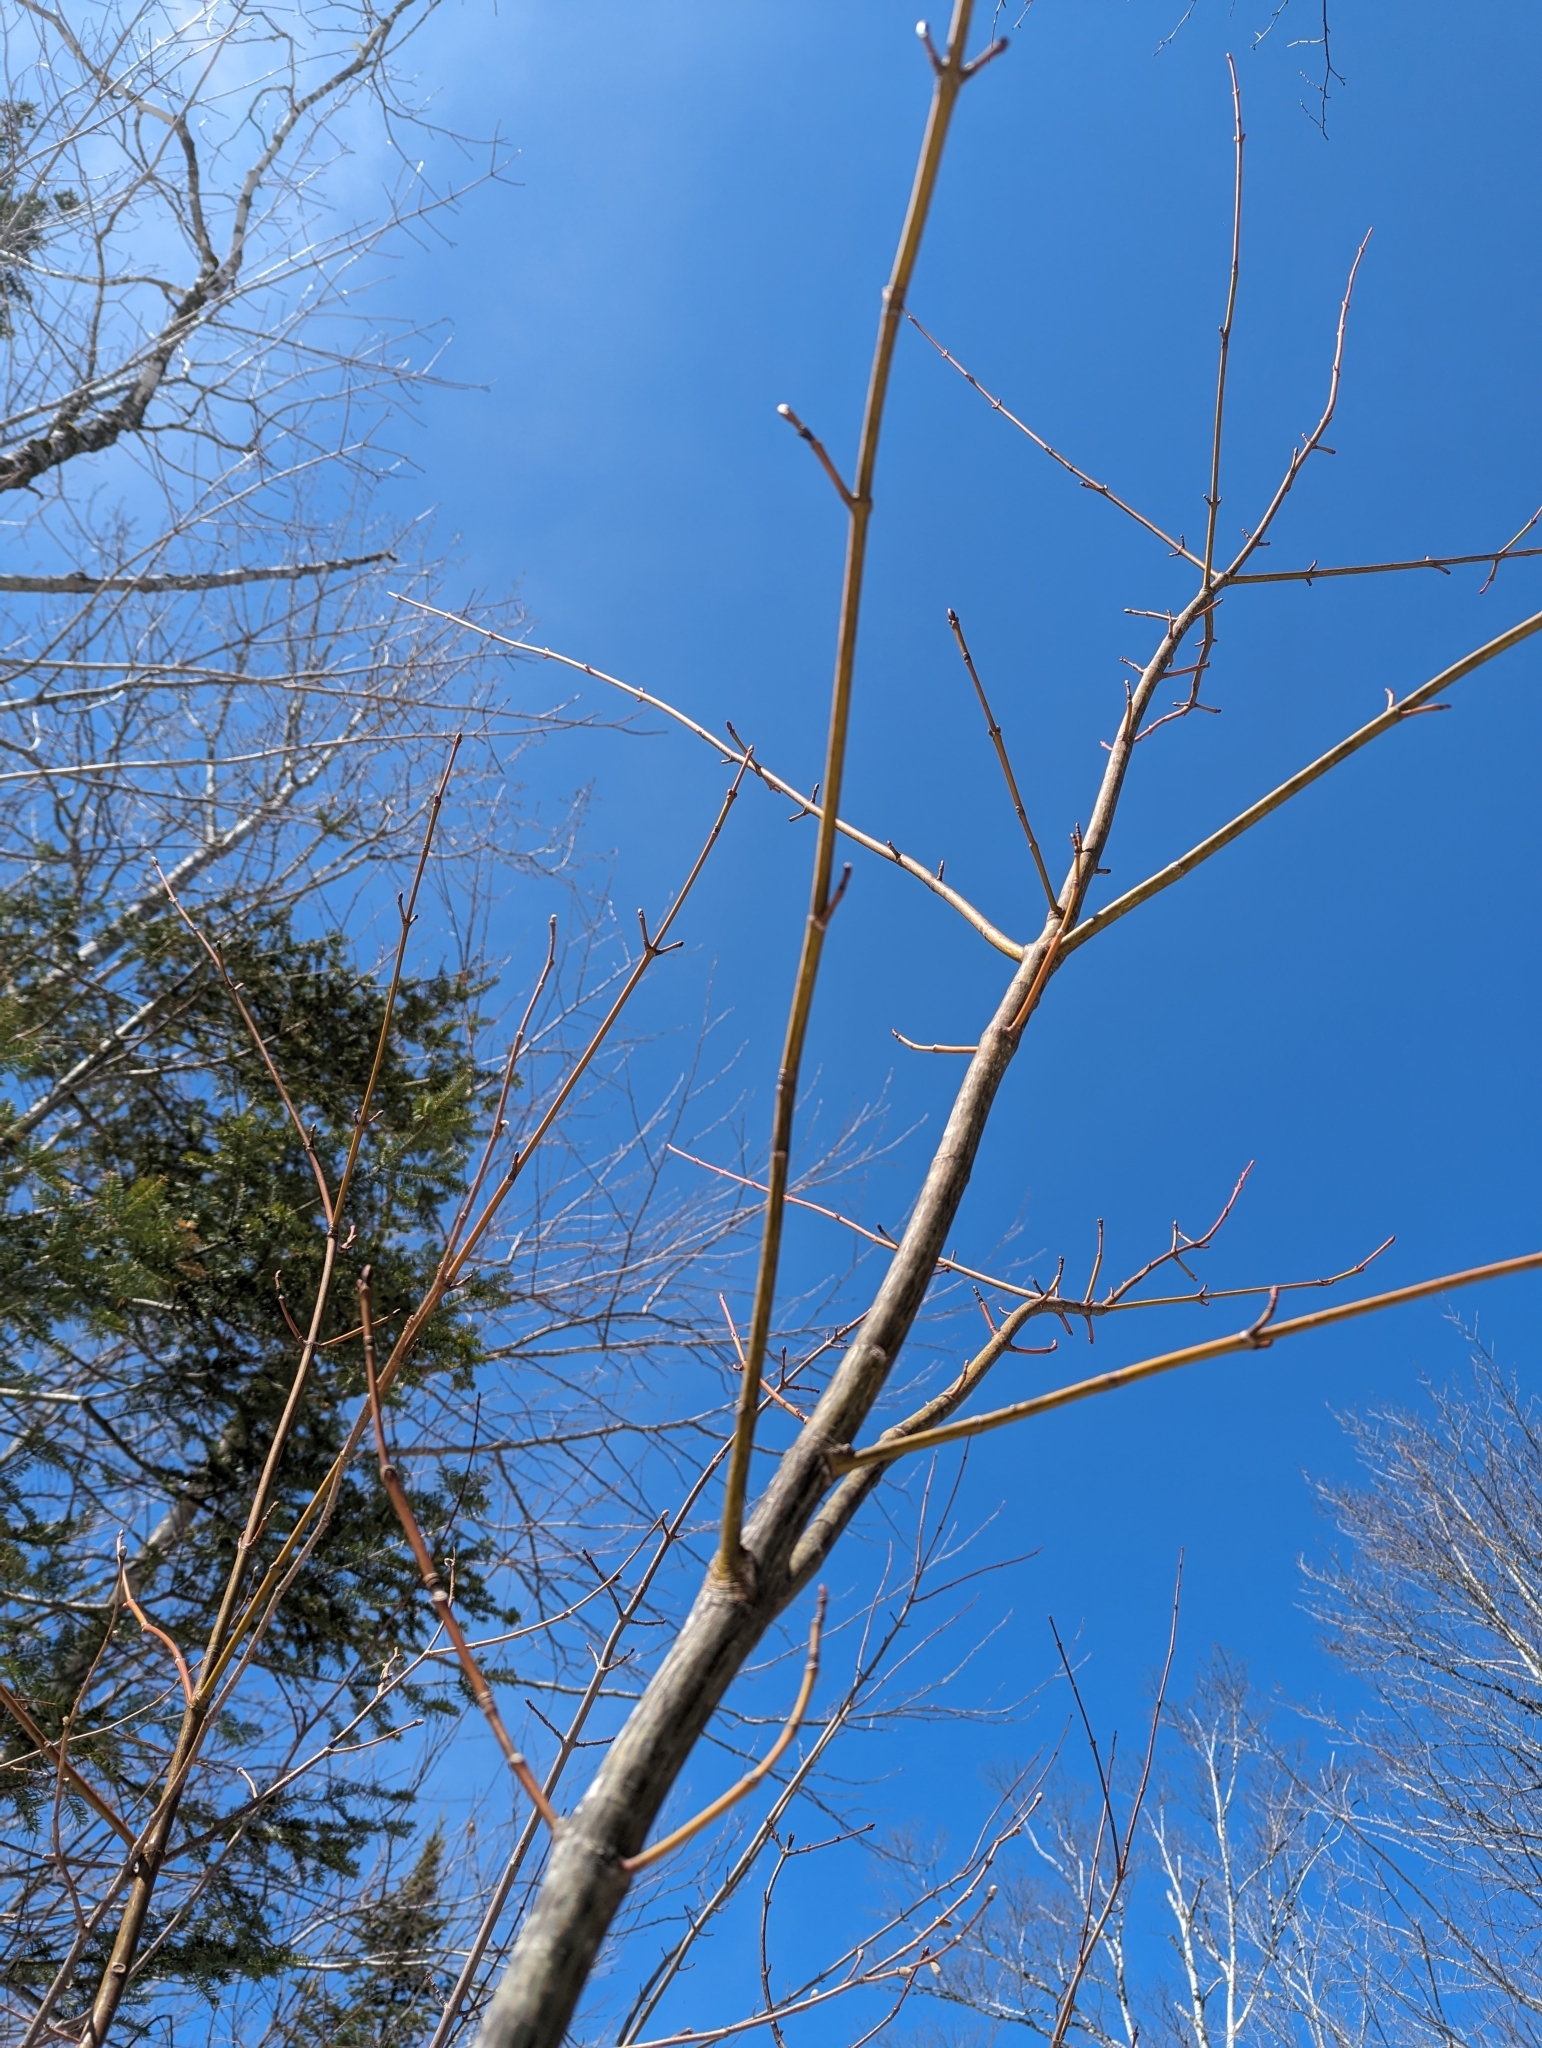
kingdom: Plantae
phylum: Tracheophyta
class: Magnoliopsida
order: Sapindales
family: Sapindaceae
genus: Acer
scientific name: Acer pensylvanicum
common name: Moosewood
